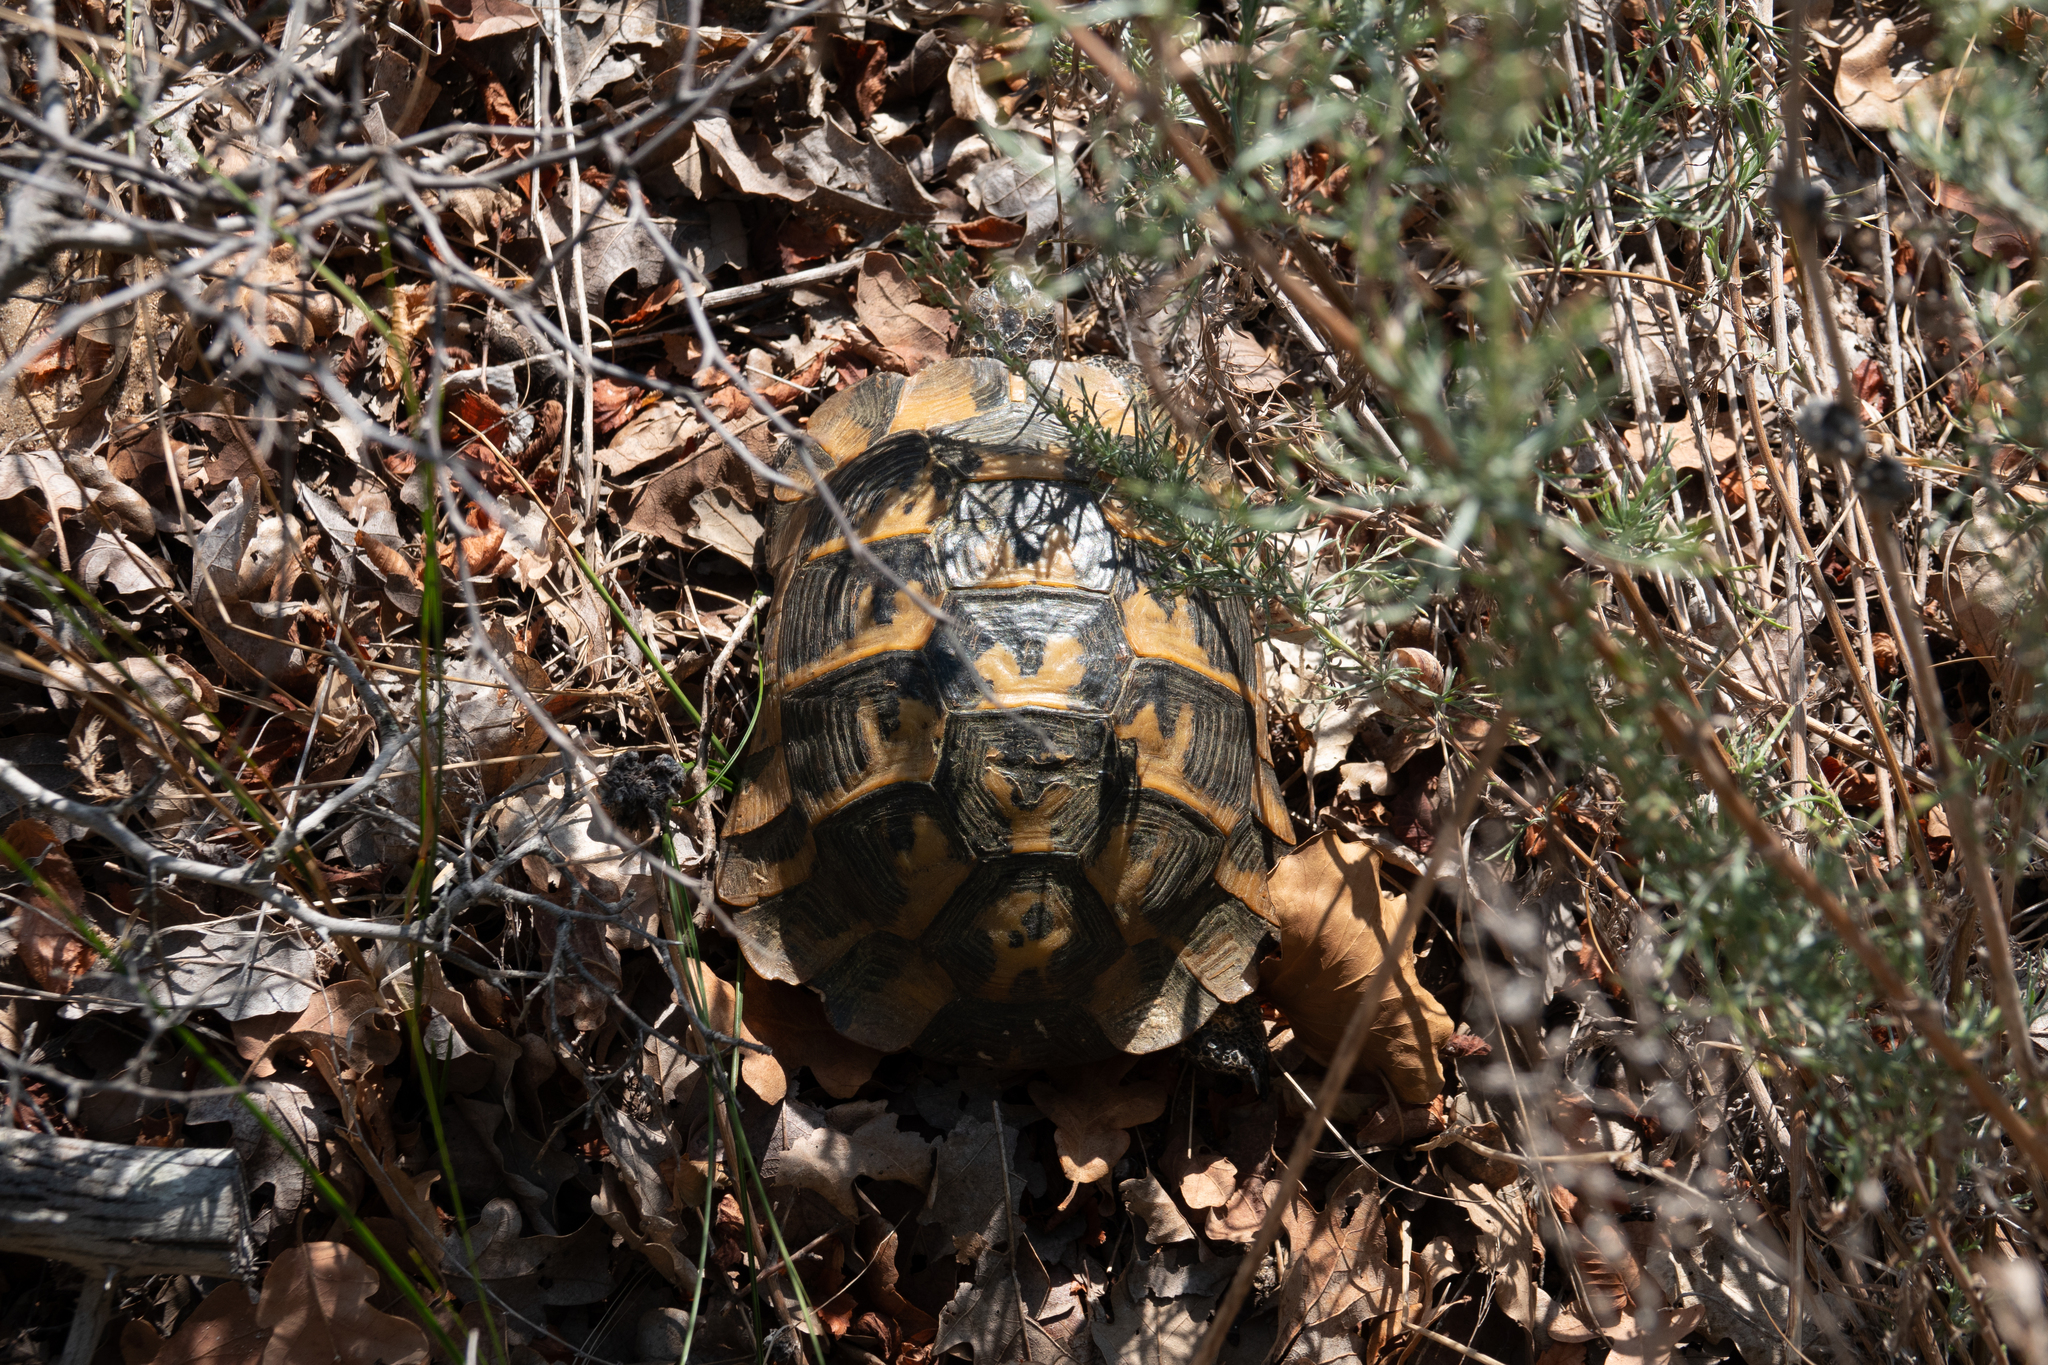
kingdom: Animalia
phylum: Chordata
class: Testudines
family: Testudinidae
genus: Testudo
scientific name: Testudo graeca
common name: Common tortoise
